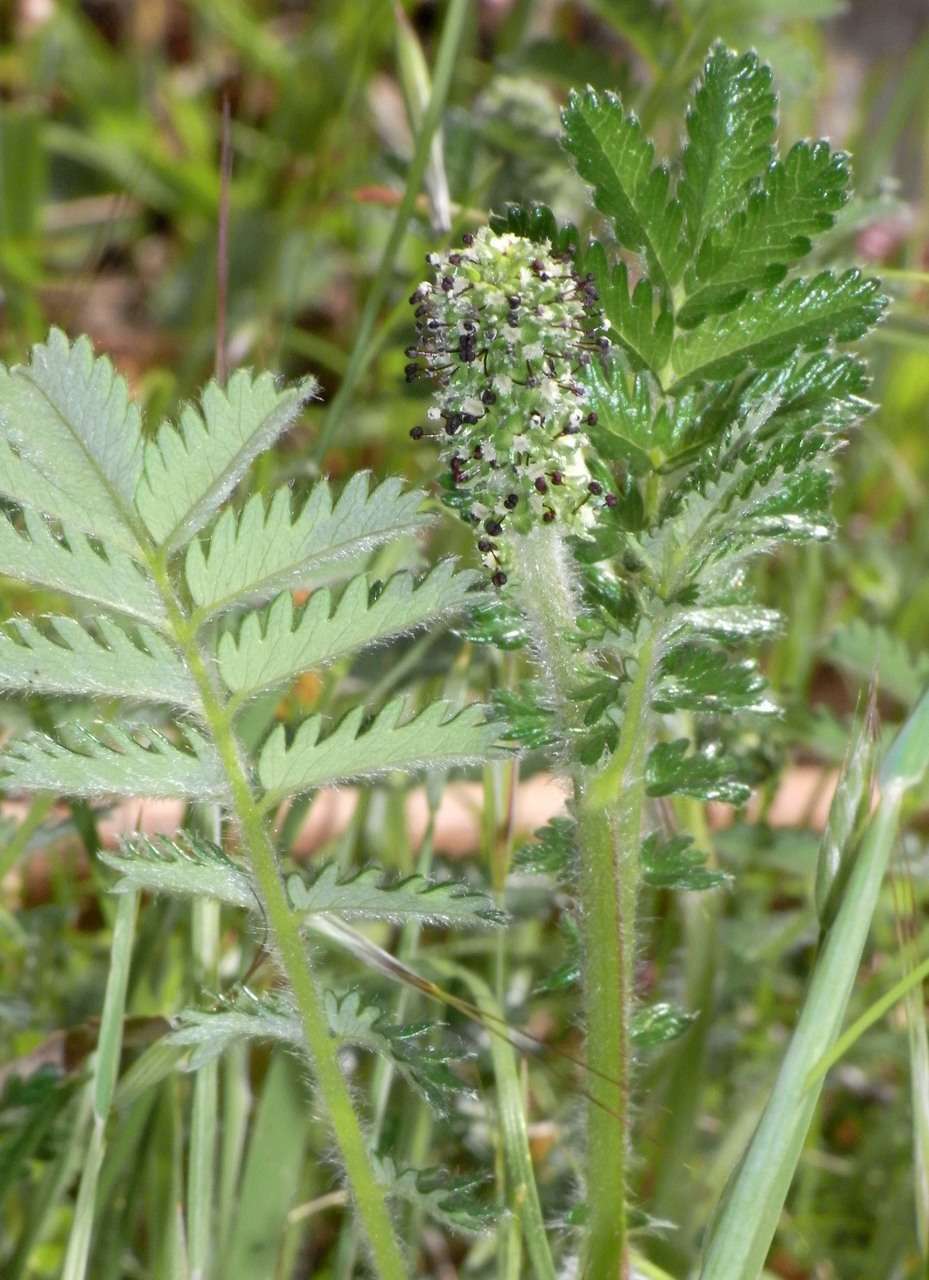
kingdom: Plantae
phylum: Tracheophyta
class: Magnoliopsida
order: Rosales
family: Rosaceae
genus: Acaena
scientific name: Acaena agnipila
